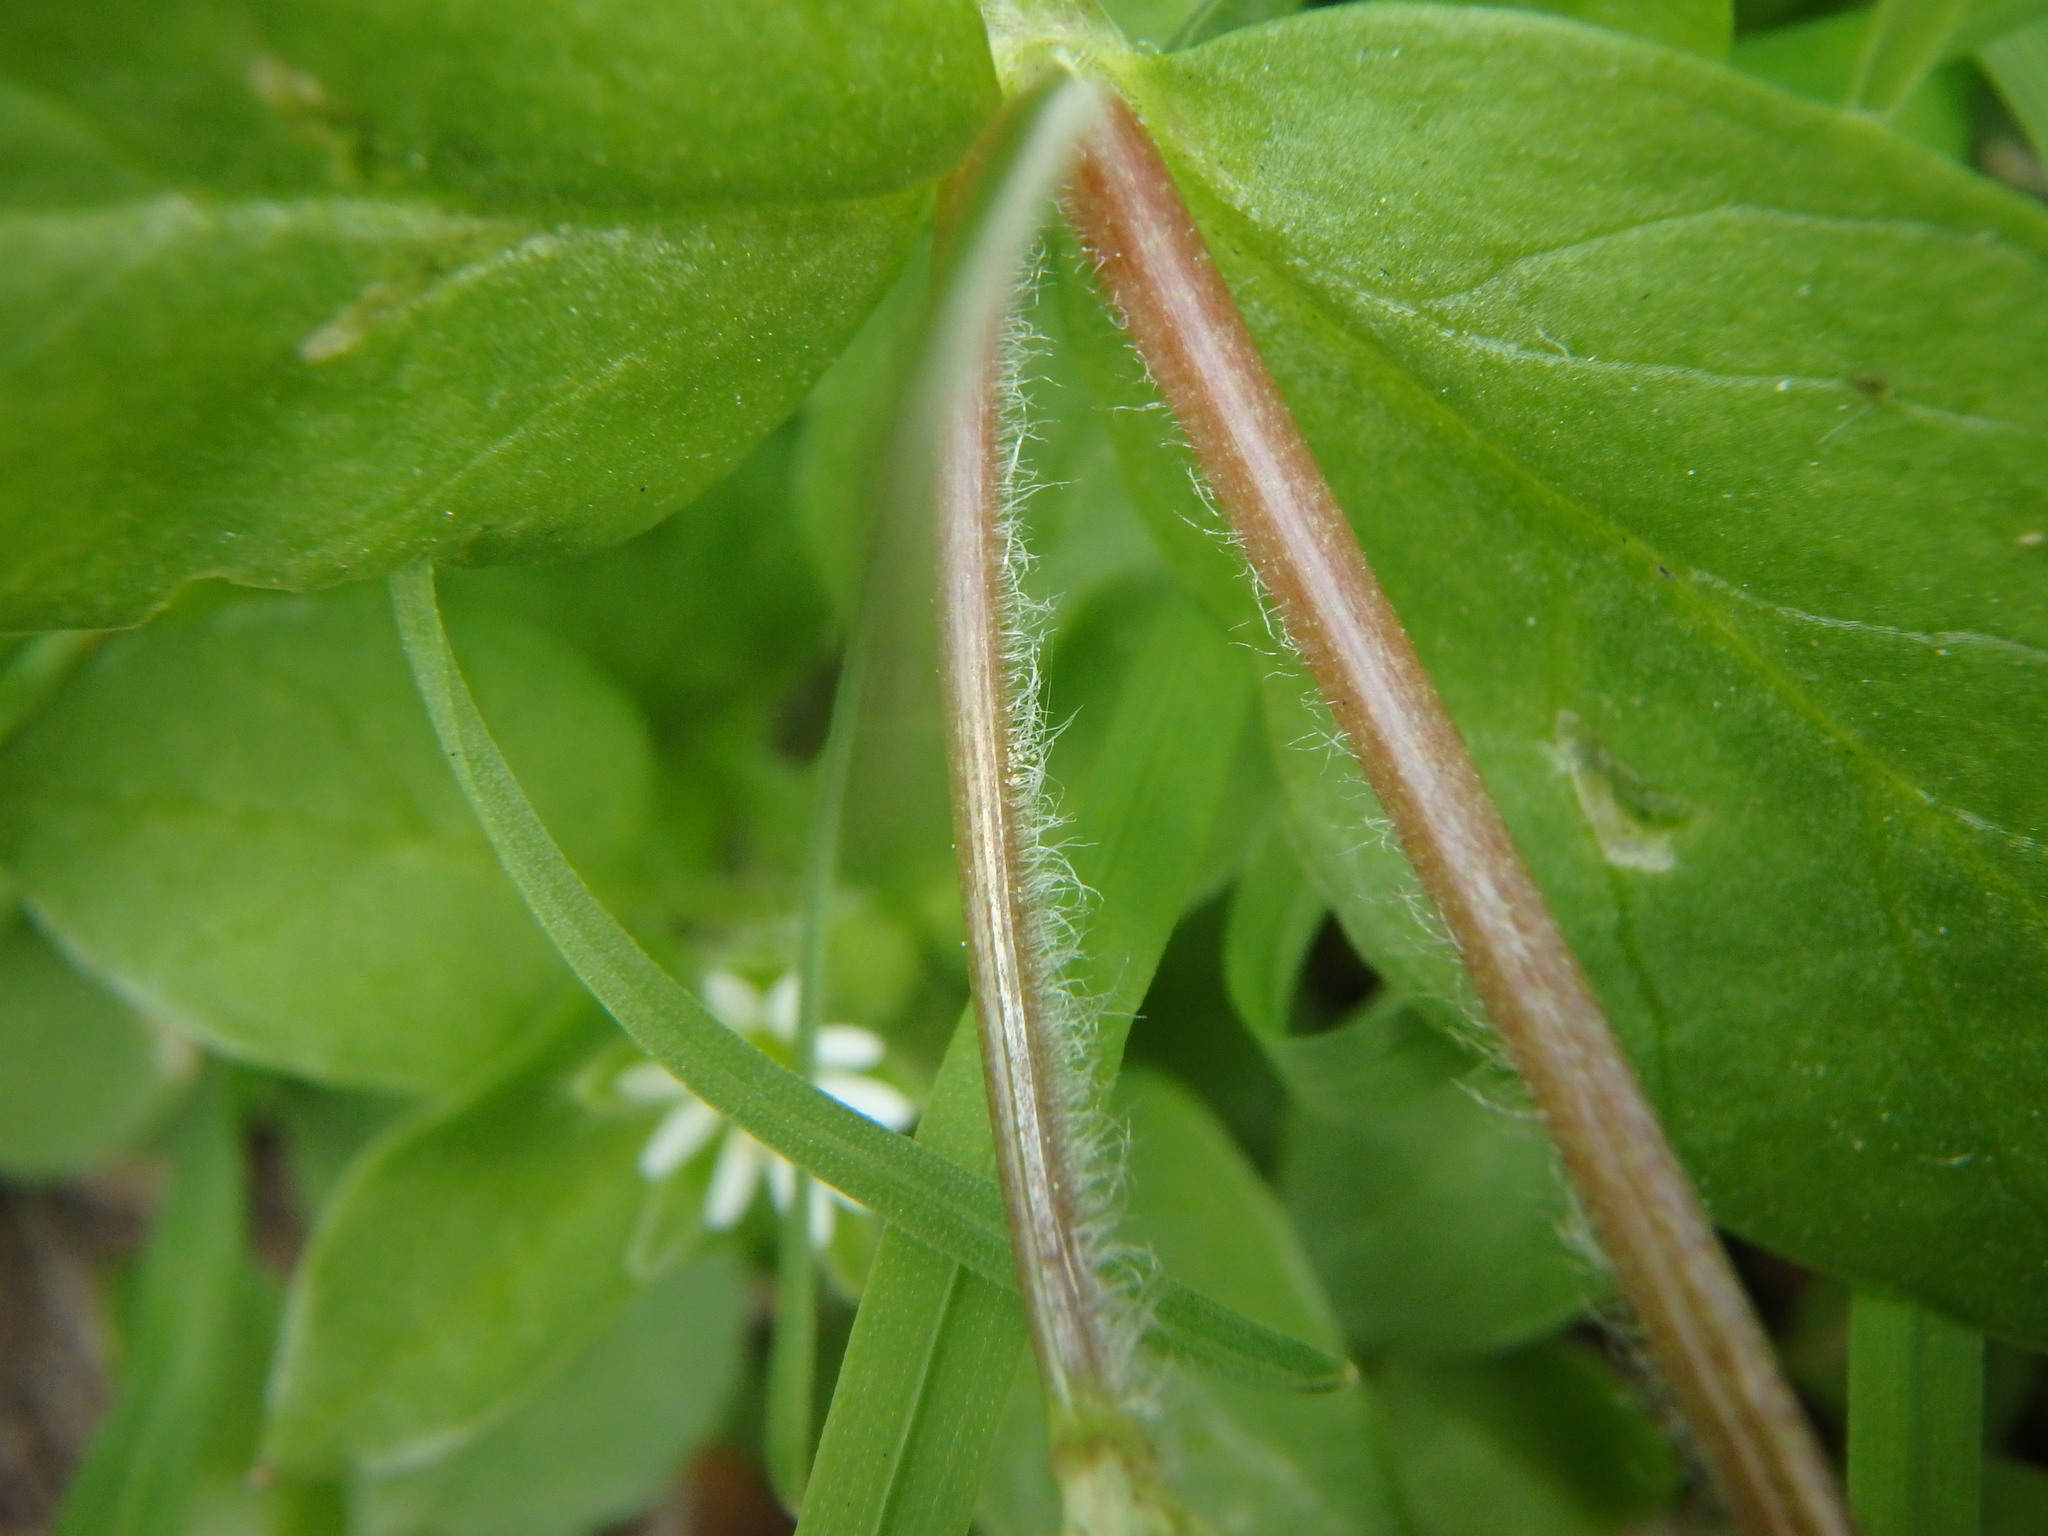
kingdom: Plantae
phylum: Tracheophyta
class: Magnoliopsida
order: Caryophyllales
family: Caryophyllaceae
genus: Stellaria
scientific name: Stellaria media
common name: Common chickweed
